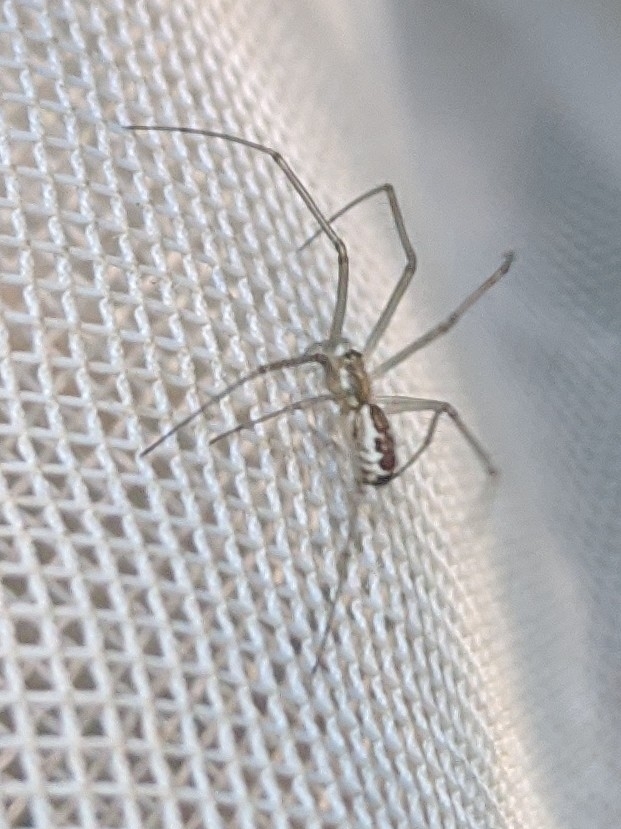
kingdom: Animalia
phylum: Arthropoda
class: Arachnida
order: Araneae
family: Linyphiidae
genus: Neriene
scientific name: Neriene radiata
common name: Filmy dome spider
